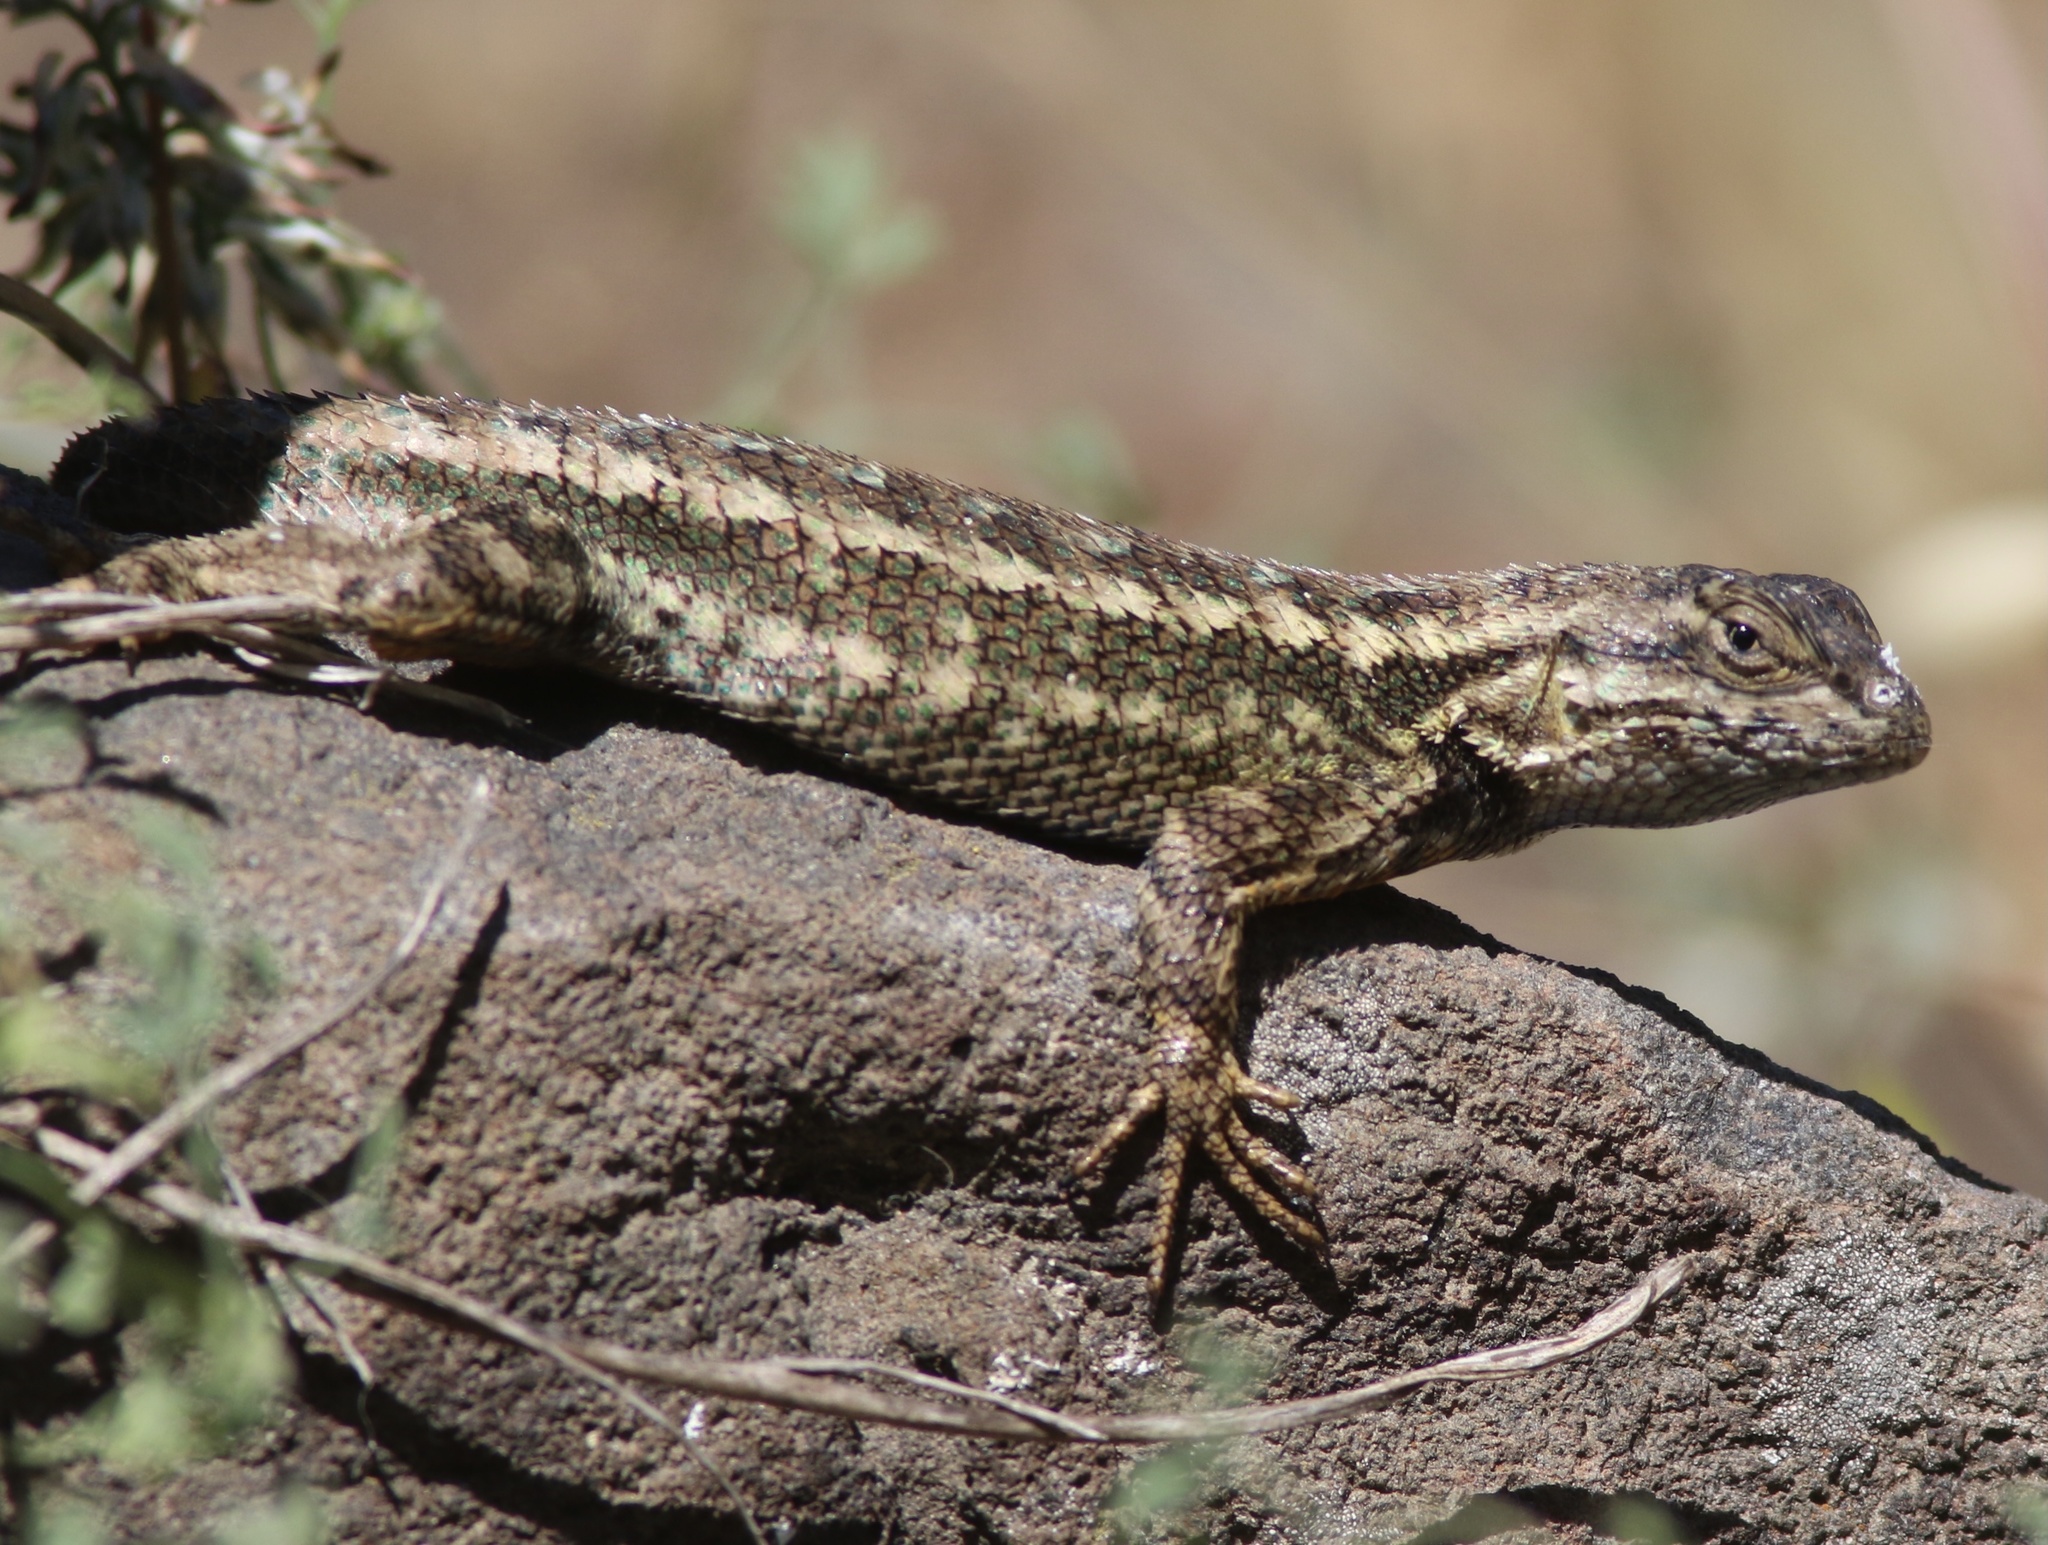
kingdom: Animalia
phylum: Chordata
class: Squamata
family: Phrynosomatidae
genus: Sceloporus
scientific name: Sceloporus occidentalis
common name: Western fence lizard
